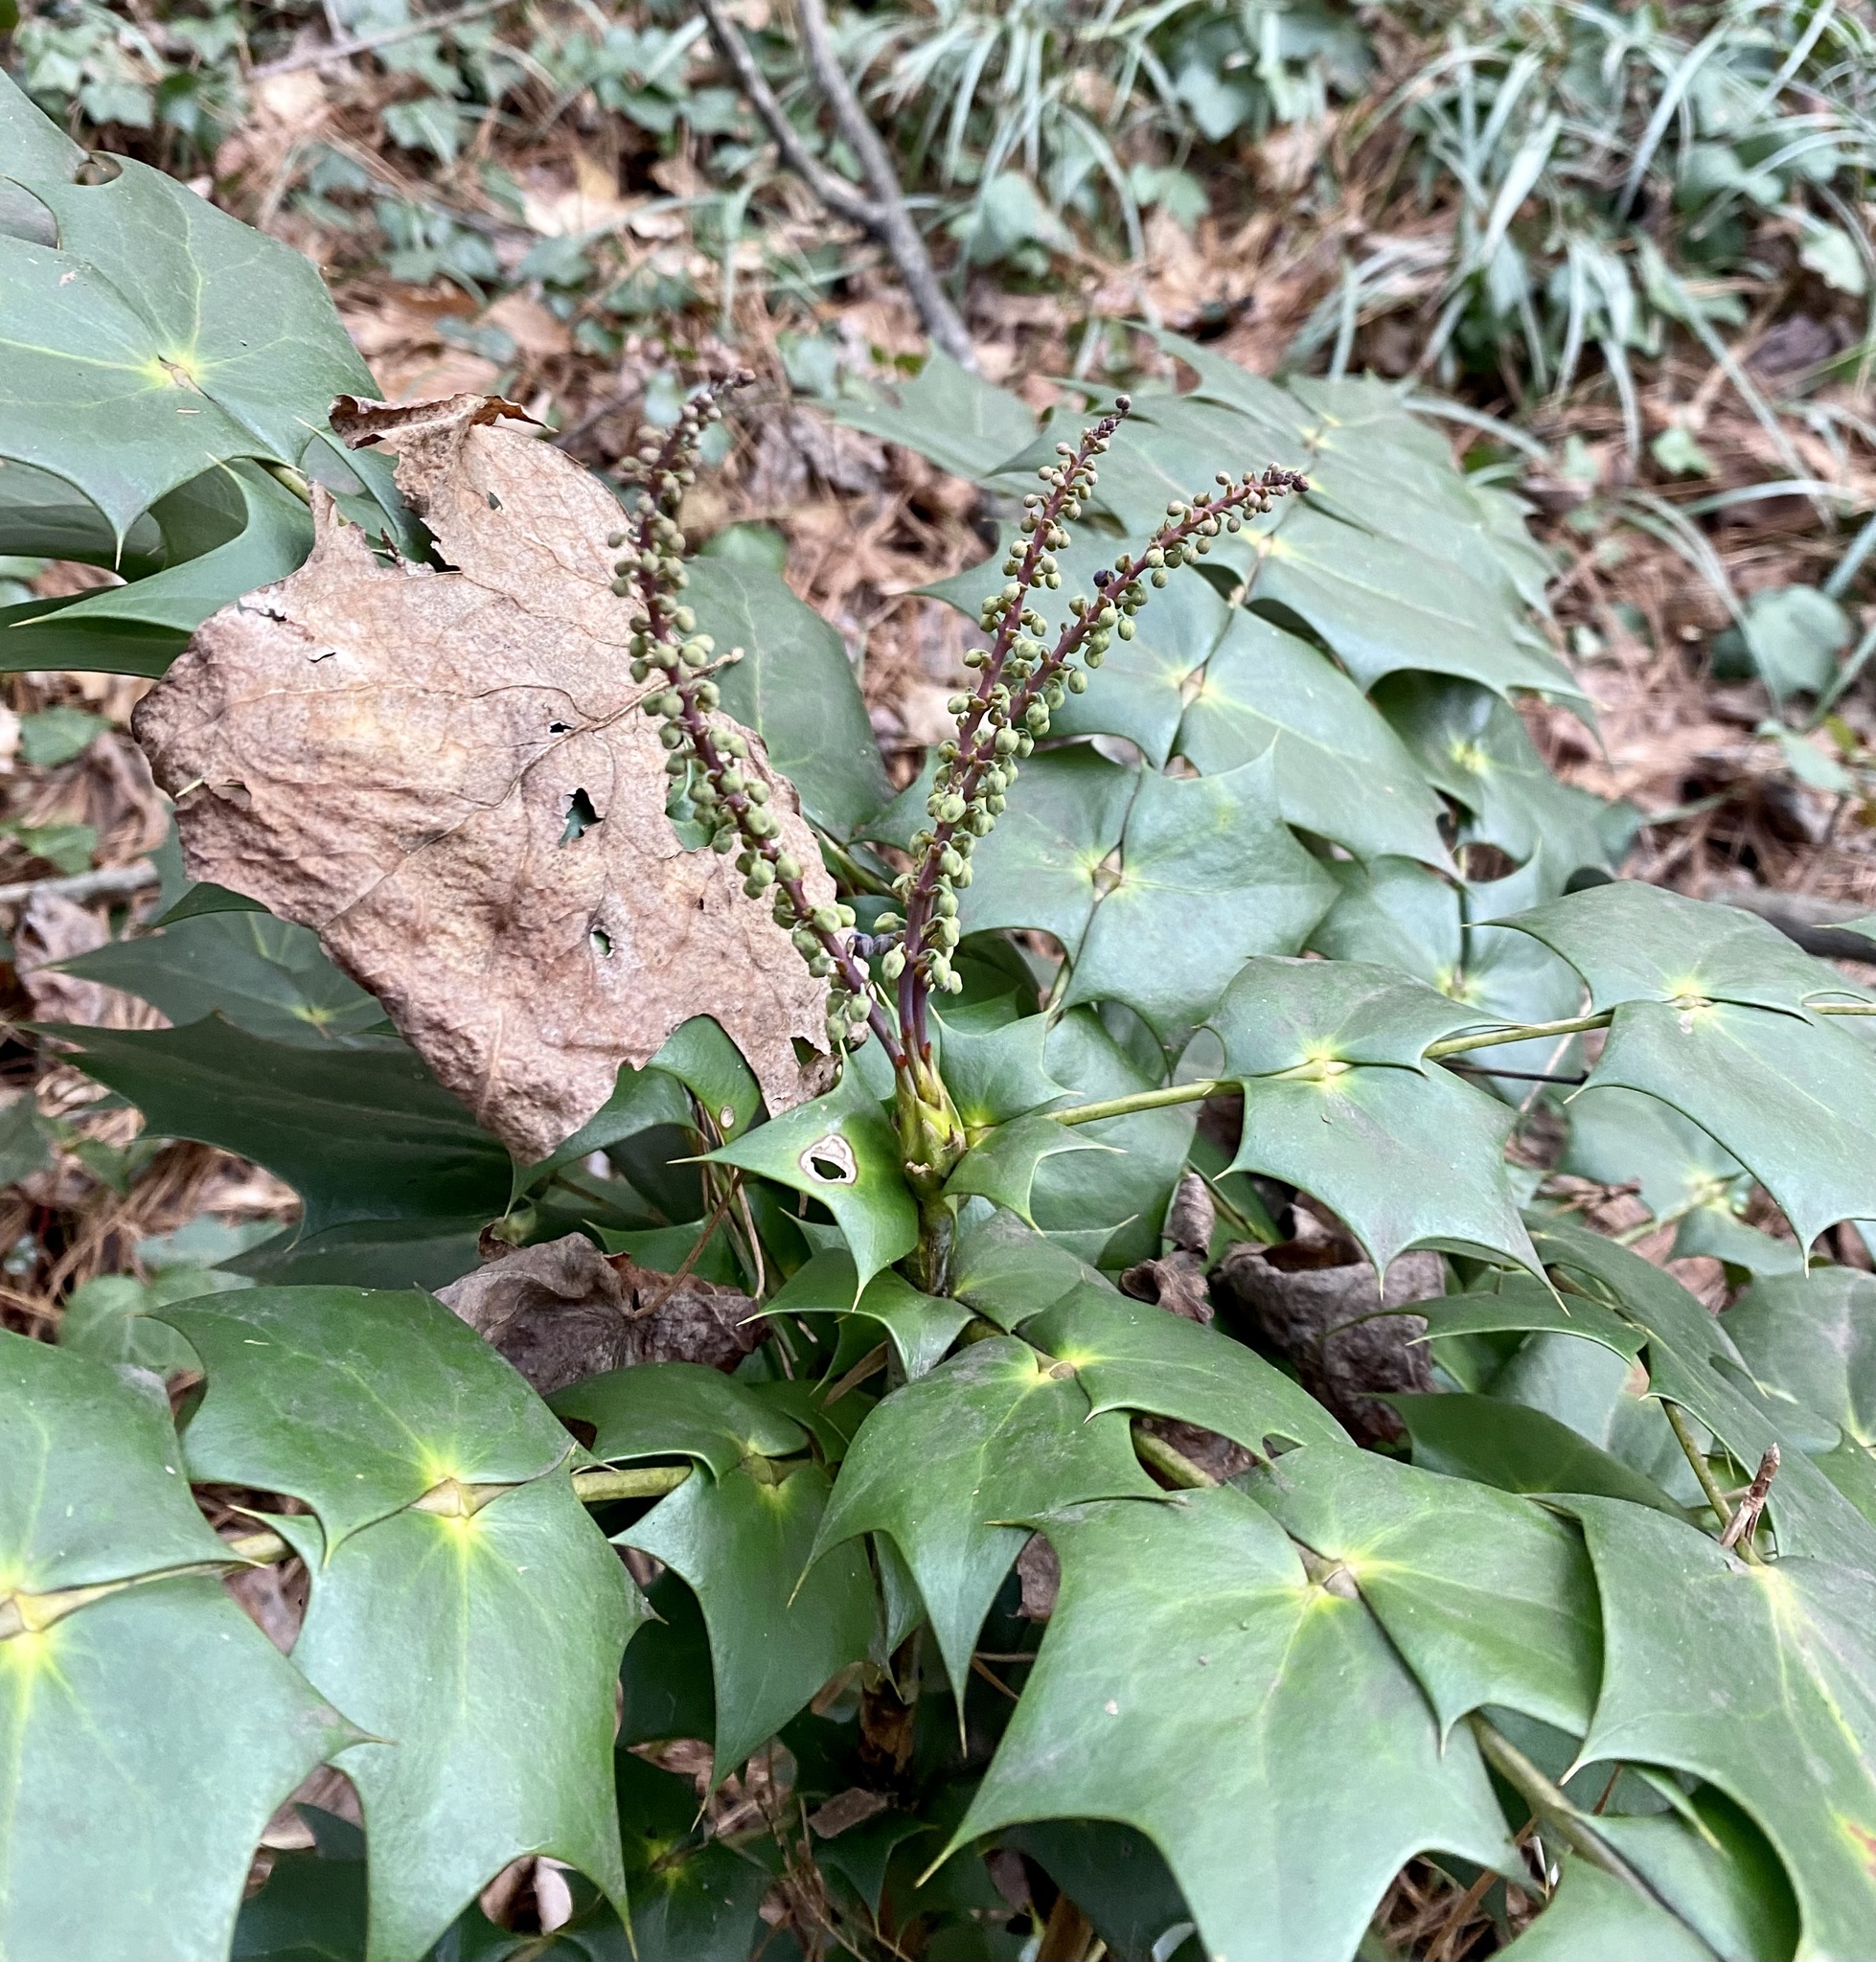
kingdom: Plantae
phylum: Tracheophyta
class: Magnoliopsida
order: Ranunculales
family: Berberidaceae
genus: Mahonia
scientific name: Mahonia bealei
